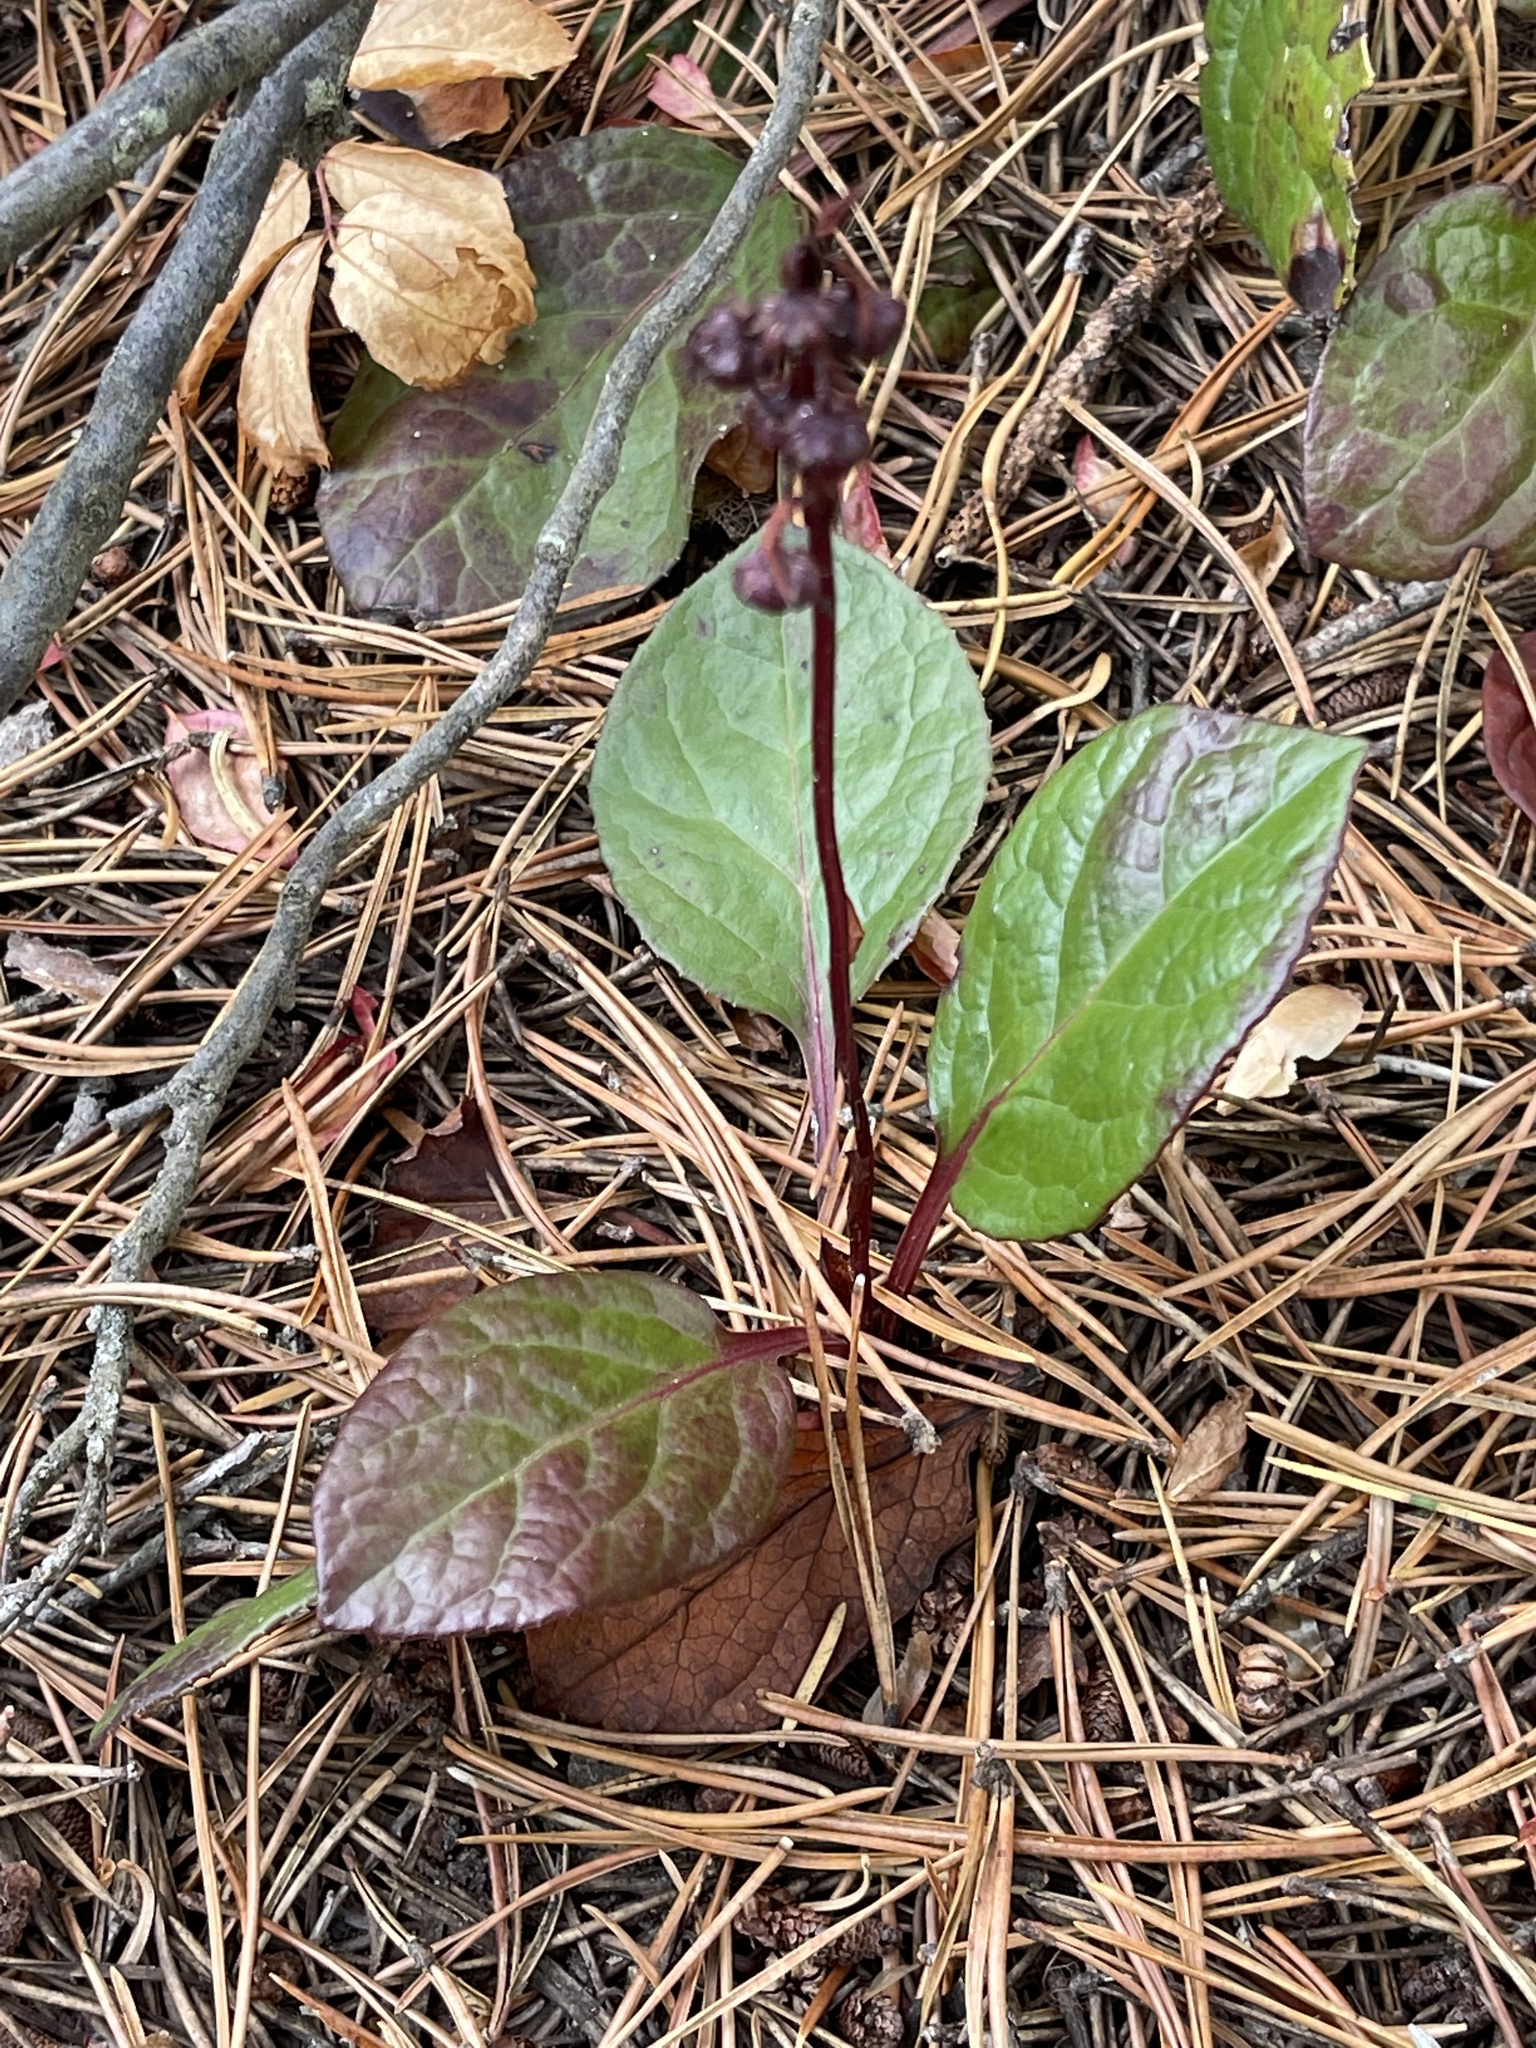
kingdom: Plantae
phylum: Tracheophyta
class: Magnoliopsida
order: Ericales
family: Ericaceae
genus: Pyrola
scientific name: Pyrola asarifolia
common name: Bog wintergreen
